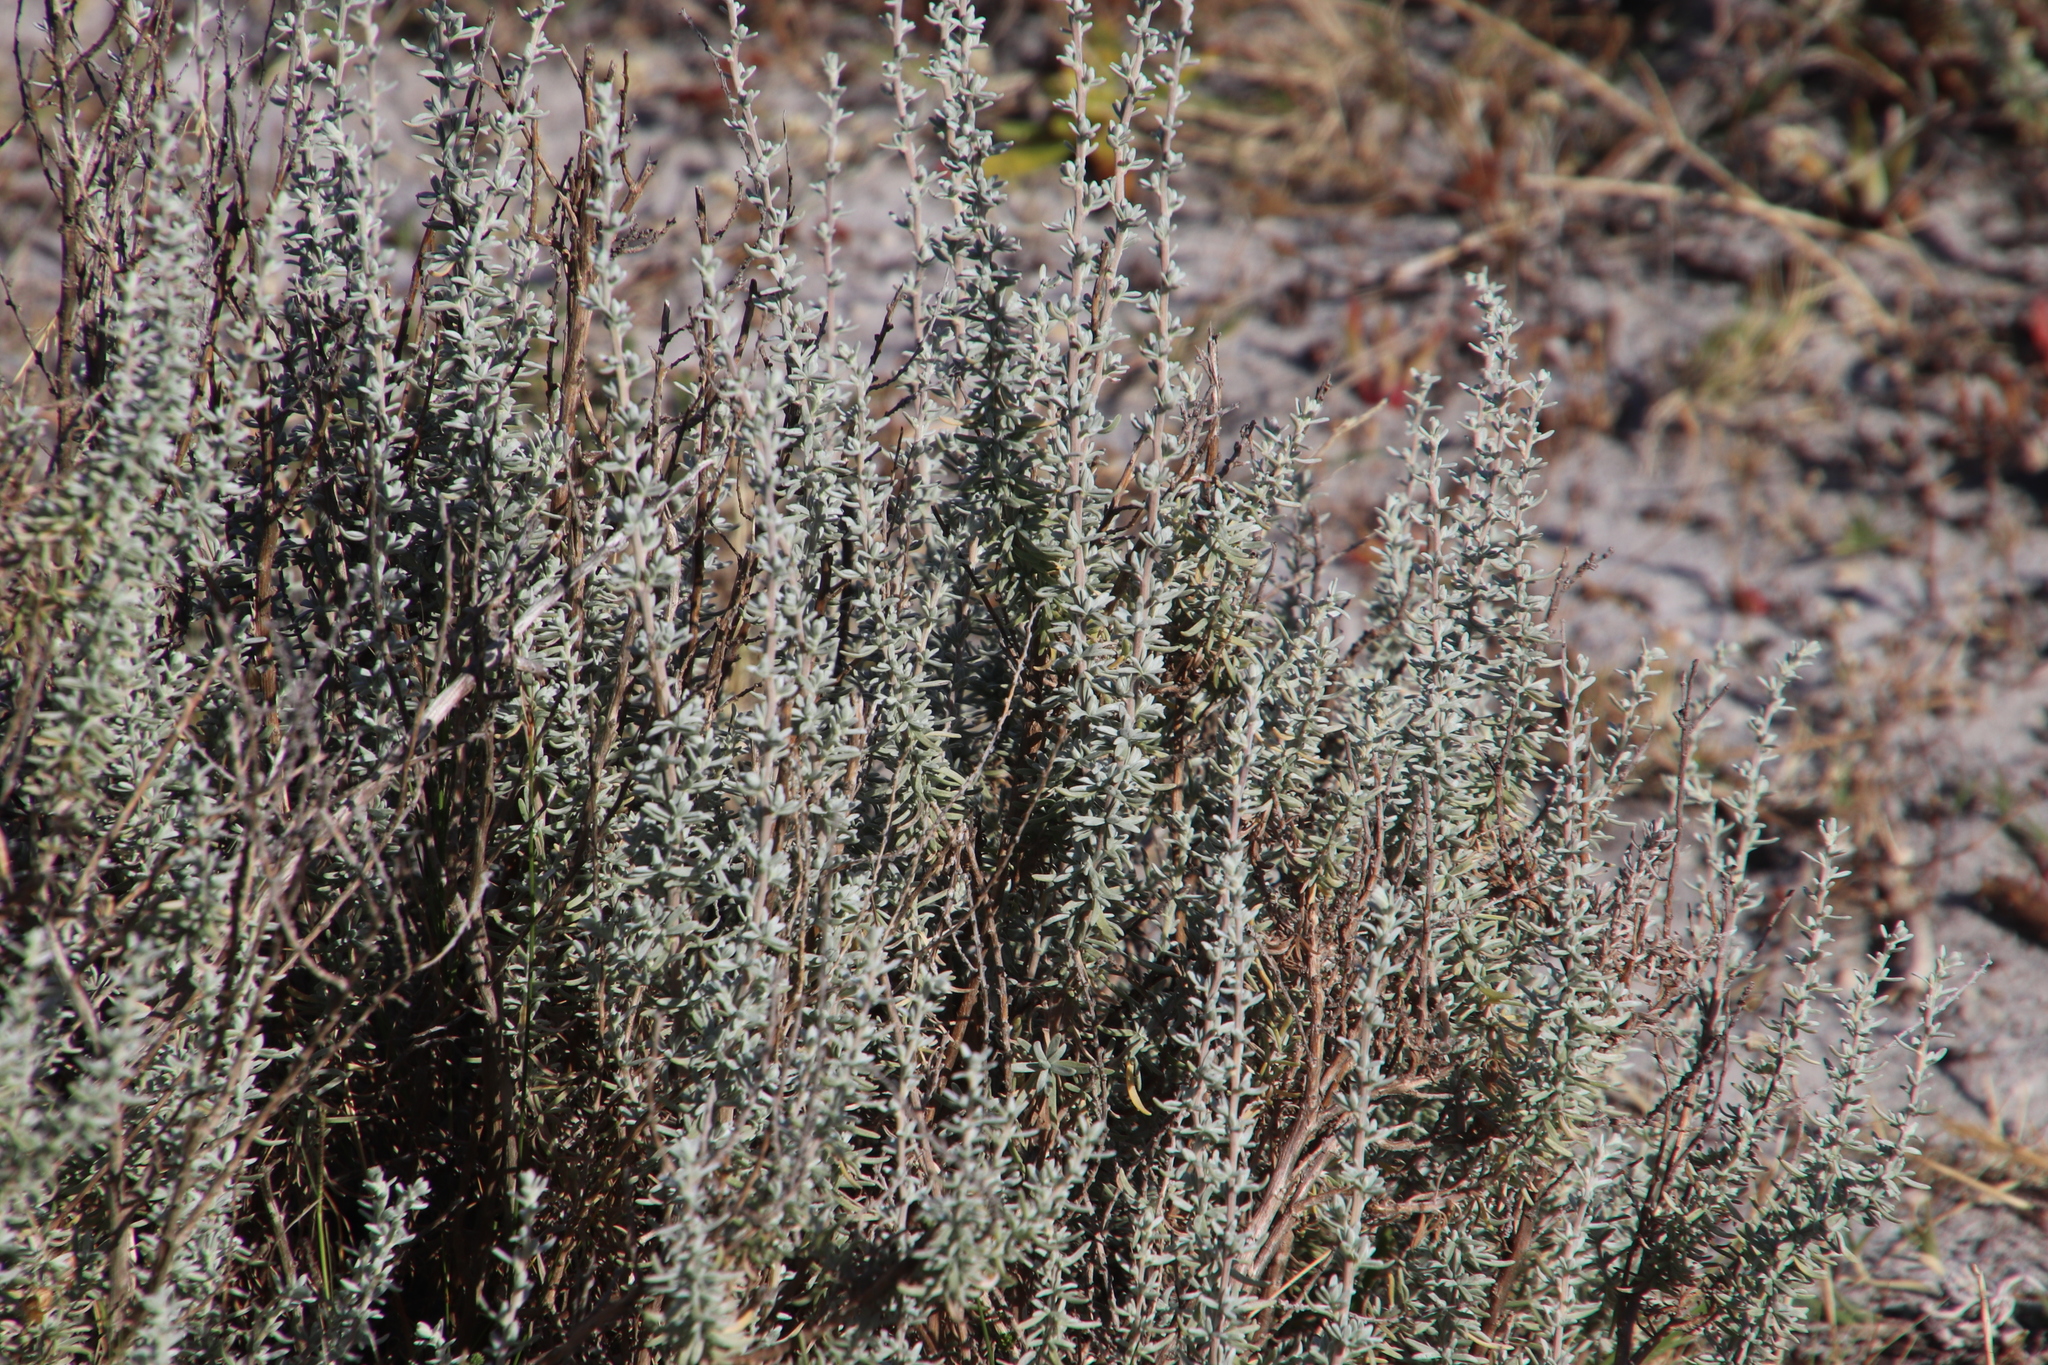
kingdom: Plantae
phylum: Tracheophyta
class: Magnoliopsida
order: Asterales
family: Asteraceae
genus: Eriocephalus
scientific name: Eriocephalus racemosus
